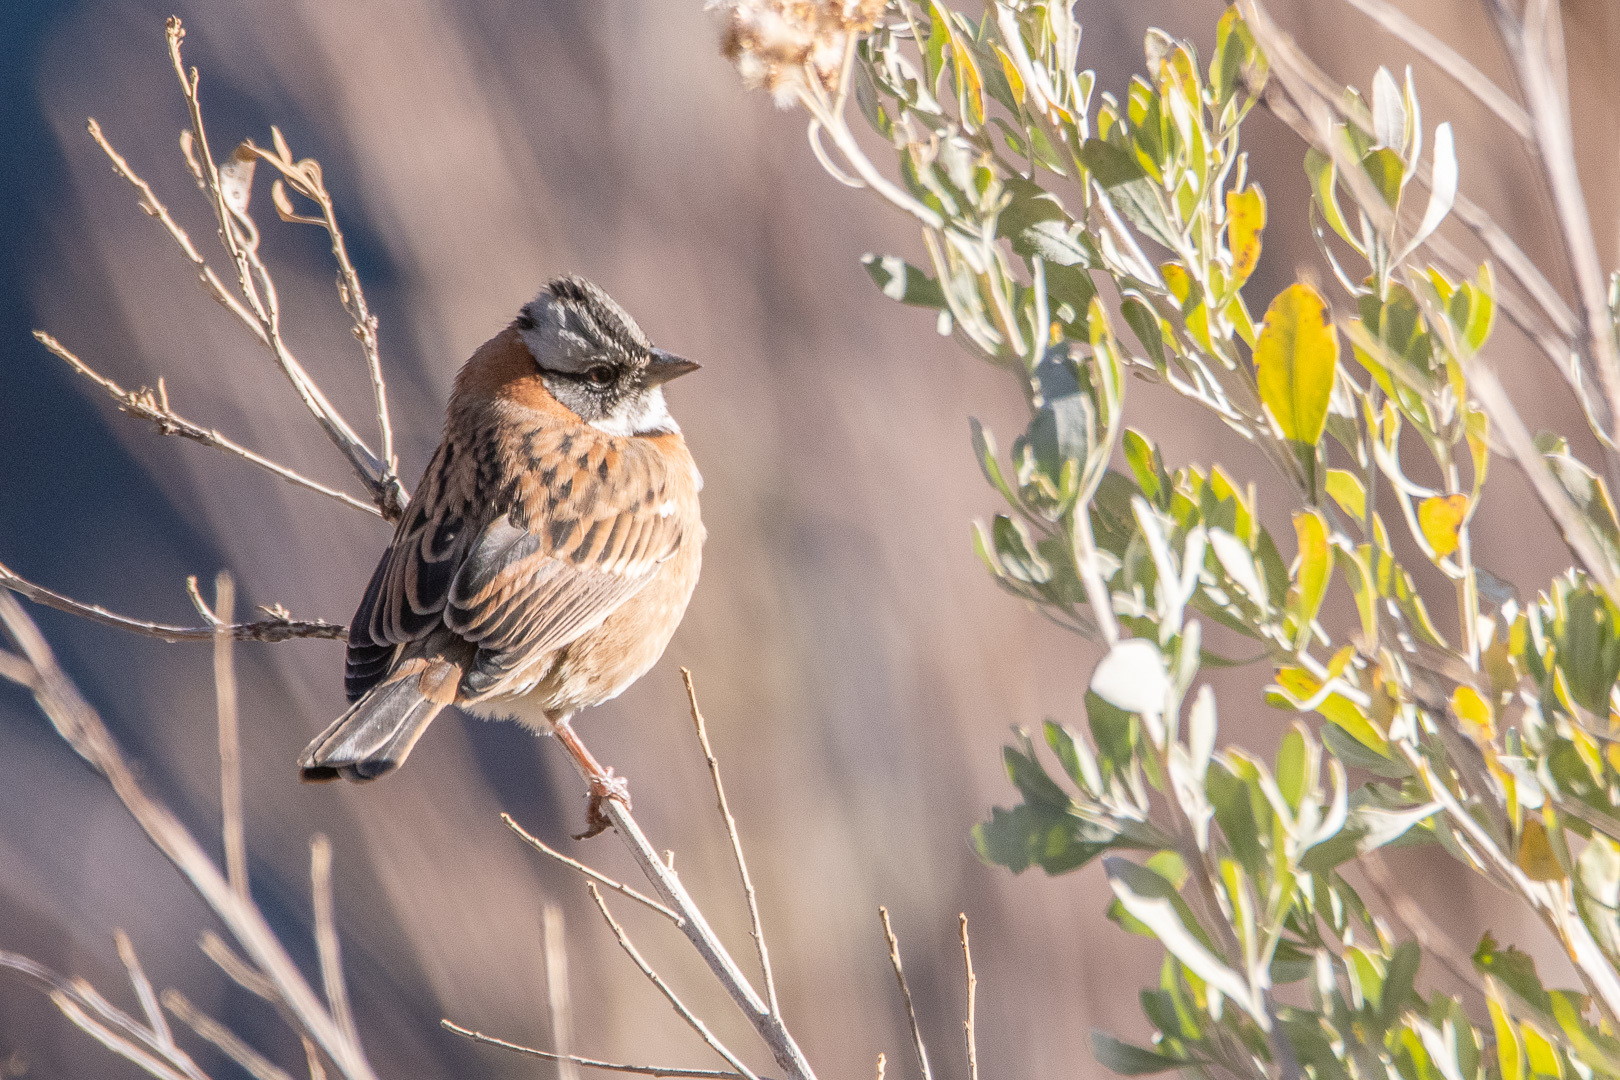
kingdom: Animalia
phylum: Chordata
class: Aves
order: Passeriformes
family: Passerellidae
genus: Zonotrichia
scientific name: Zonotrichia capensis
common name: Rufous-collared sparrow
